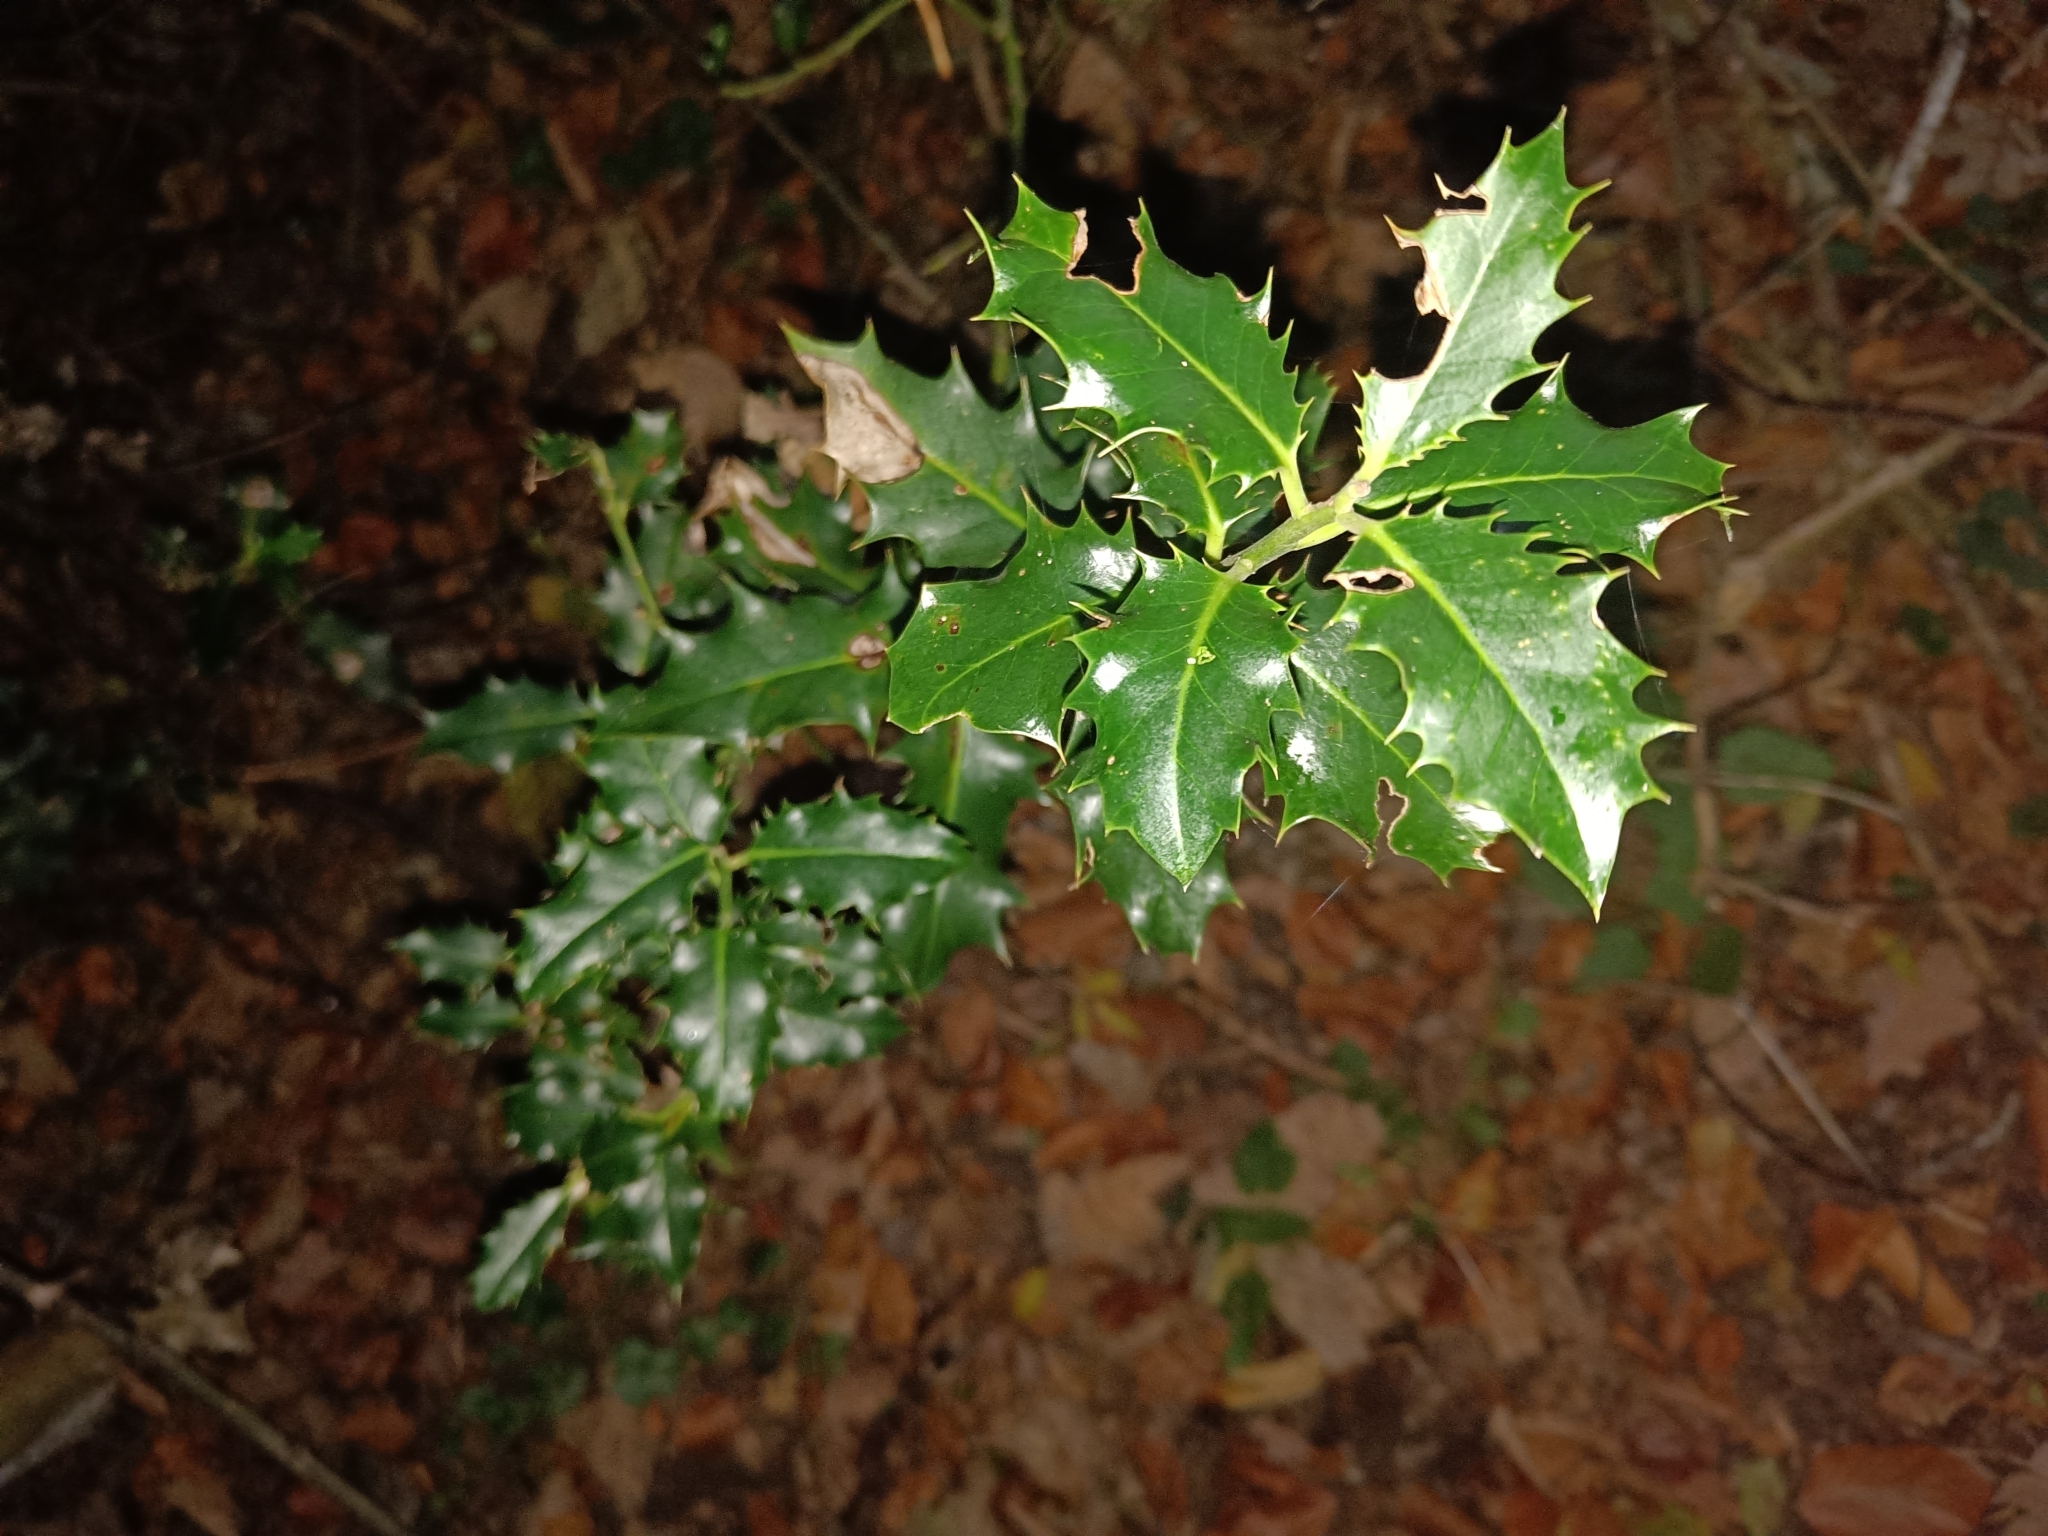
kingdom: Plantae
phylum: Tracheophyta
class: Magnoliopsida
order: Aquifoliales
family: Aquifoliaceae
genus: Ilex
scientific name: Ilex aquifolium
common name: English holly
